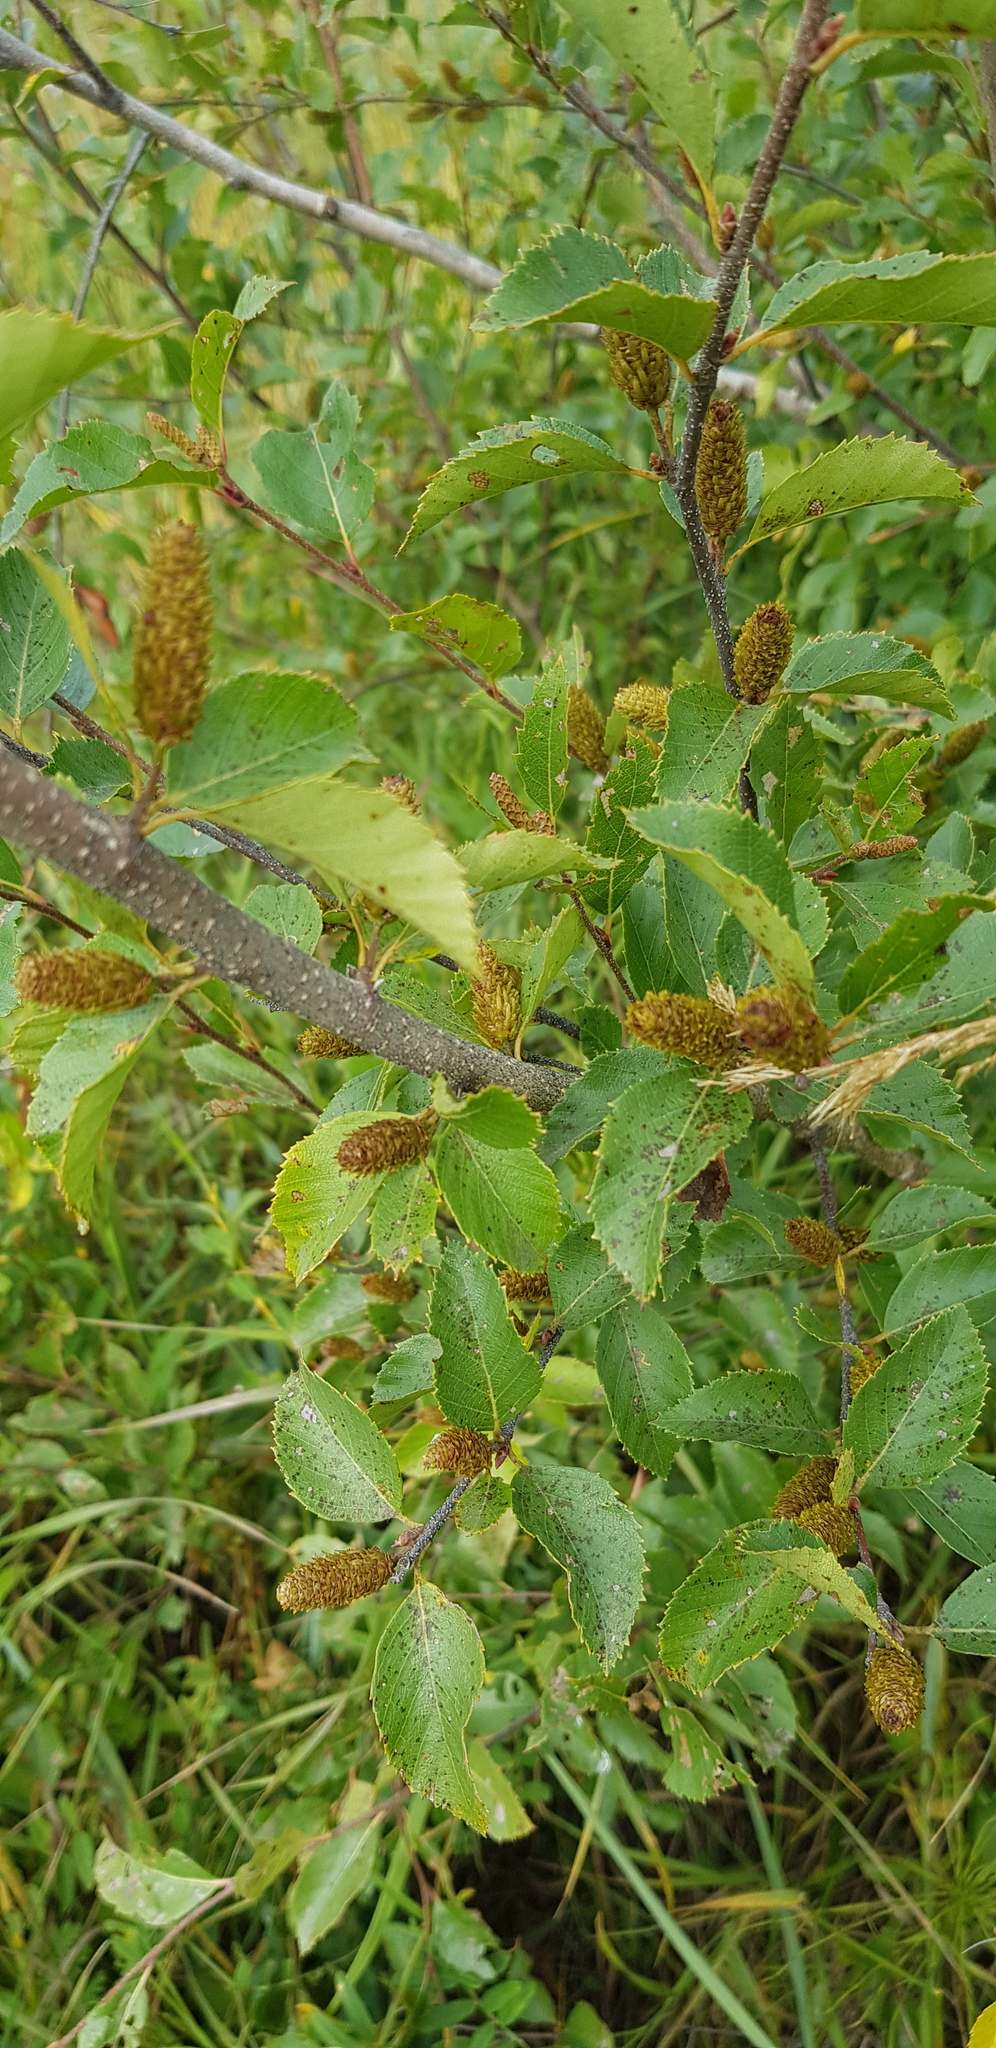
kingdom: Plantae
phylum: Tracheophyta
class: Magnoliopsida
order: Fagales
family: Betulaceae
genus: Betula
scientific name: Betula humilis
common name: Shrubby birch
